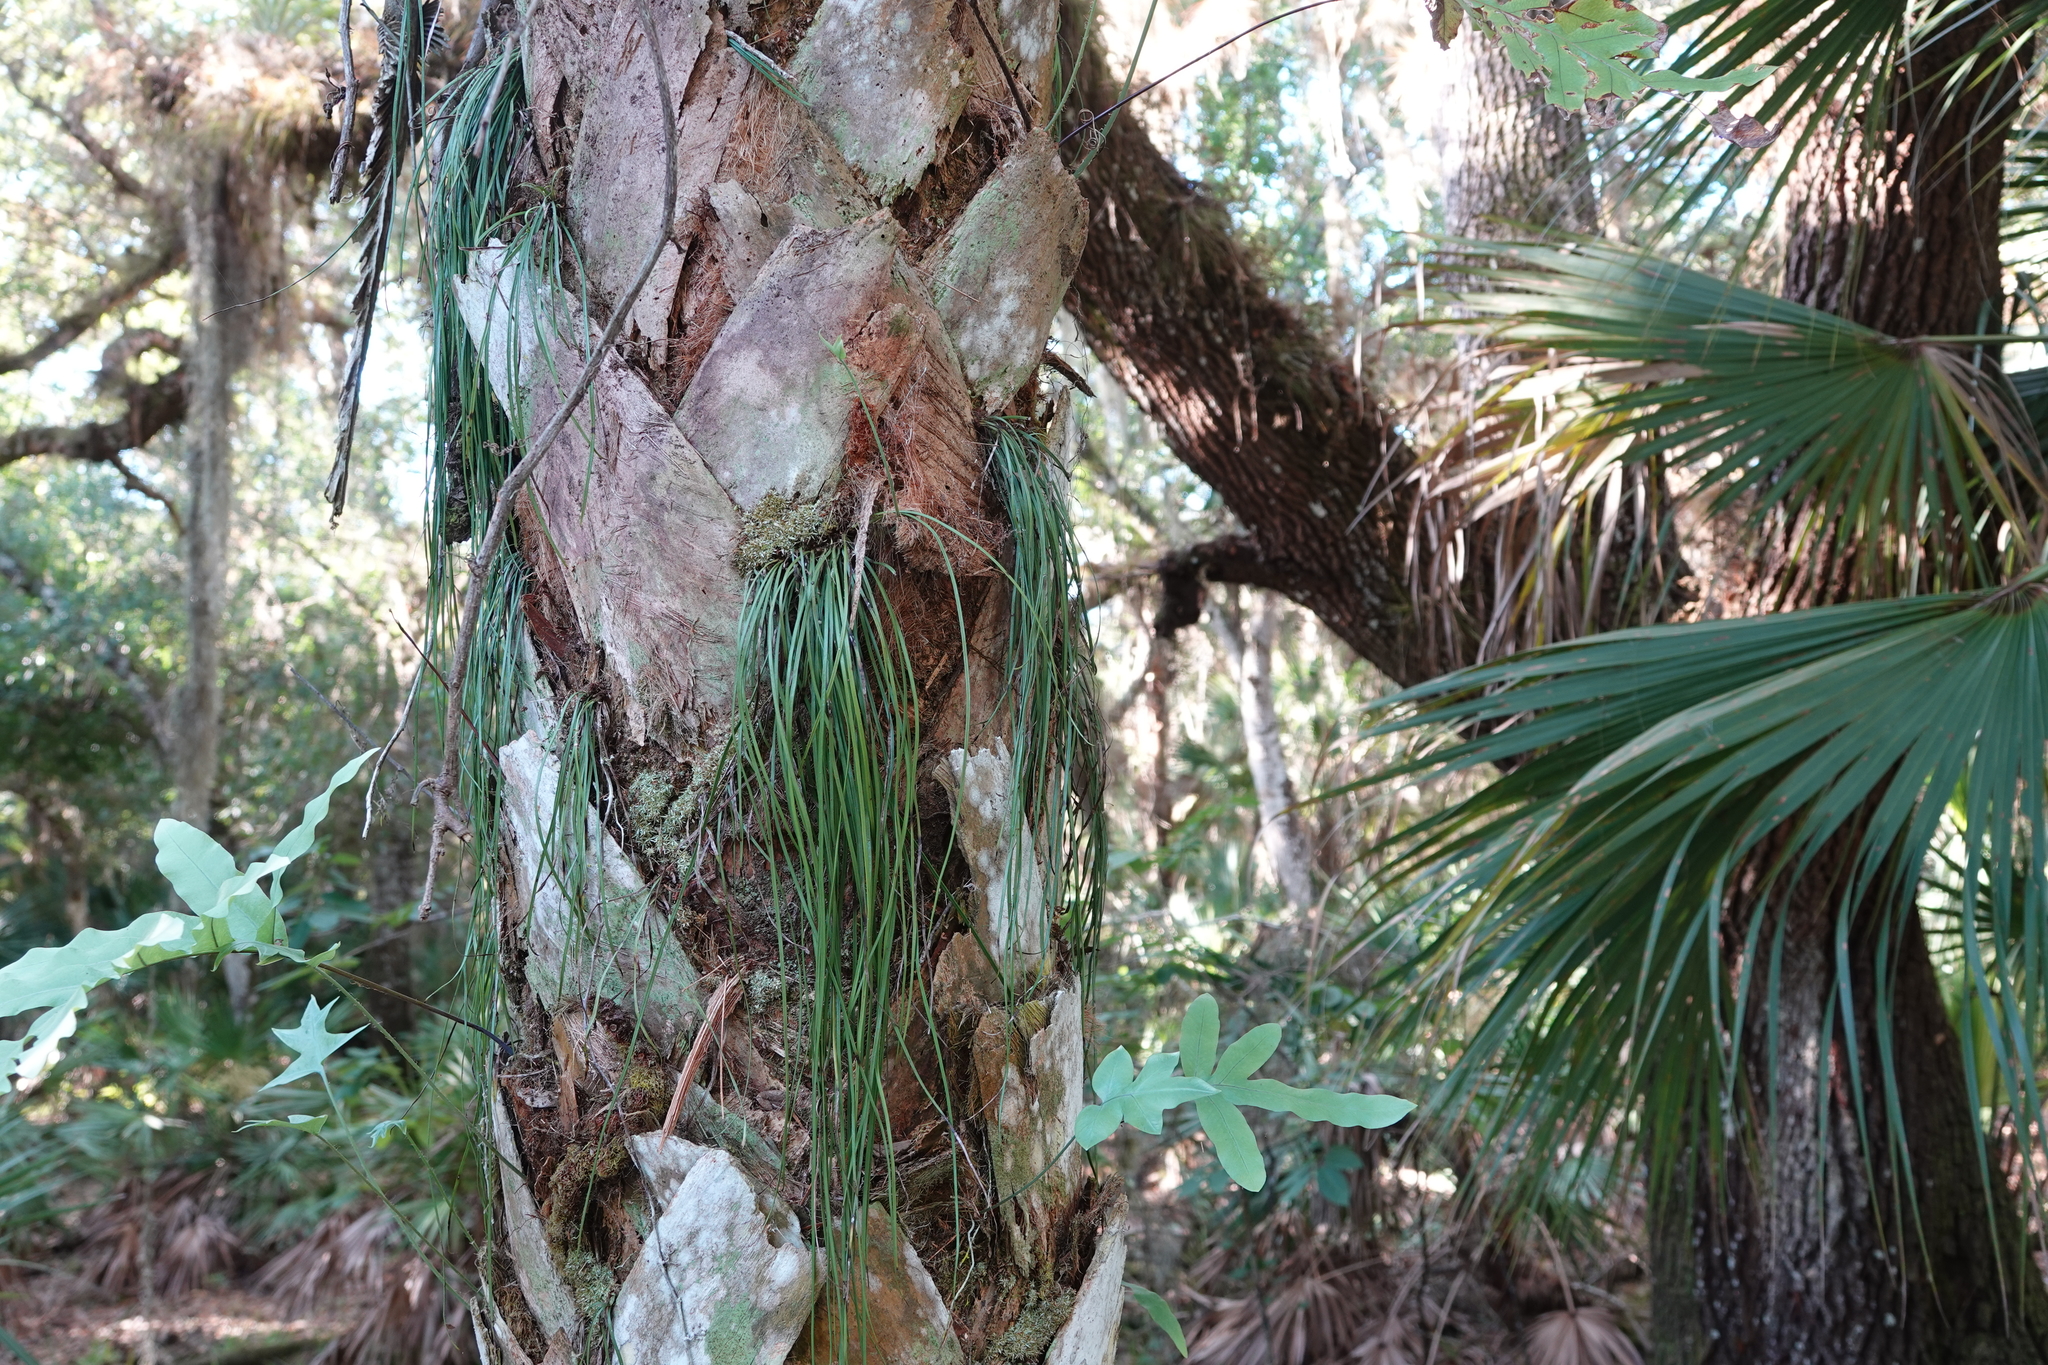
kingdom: Plantae
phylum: Tracheophyta
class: Polypodiopsida
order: Polypodiales
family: Pteridaceae
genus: Vittaria
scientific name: Vittaria lineata
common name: Shoestring fern
